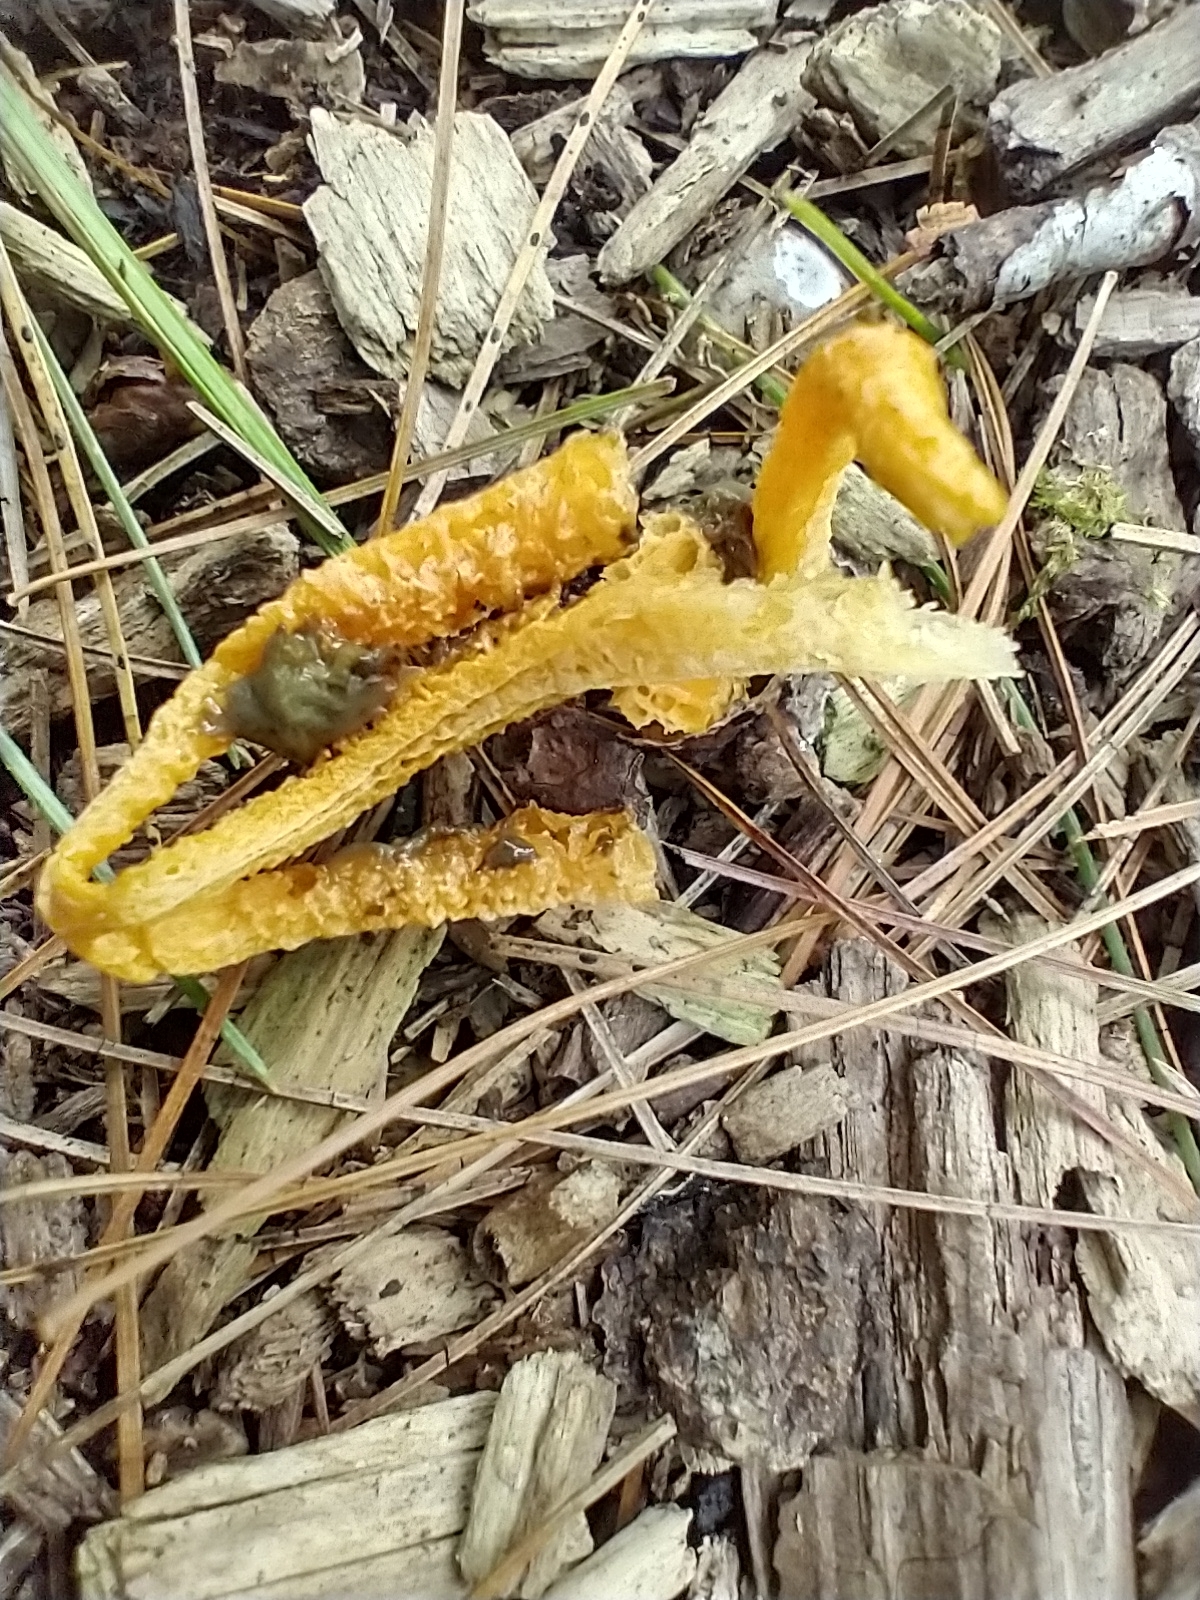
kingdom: Fungi
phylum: Basidiomycota
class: Agaricomycetes
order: Phallales
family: Phallaceae
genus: Pseudocolus
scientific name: Pseudocolus fusiformis
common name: Stinky squid
